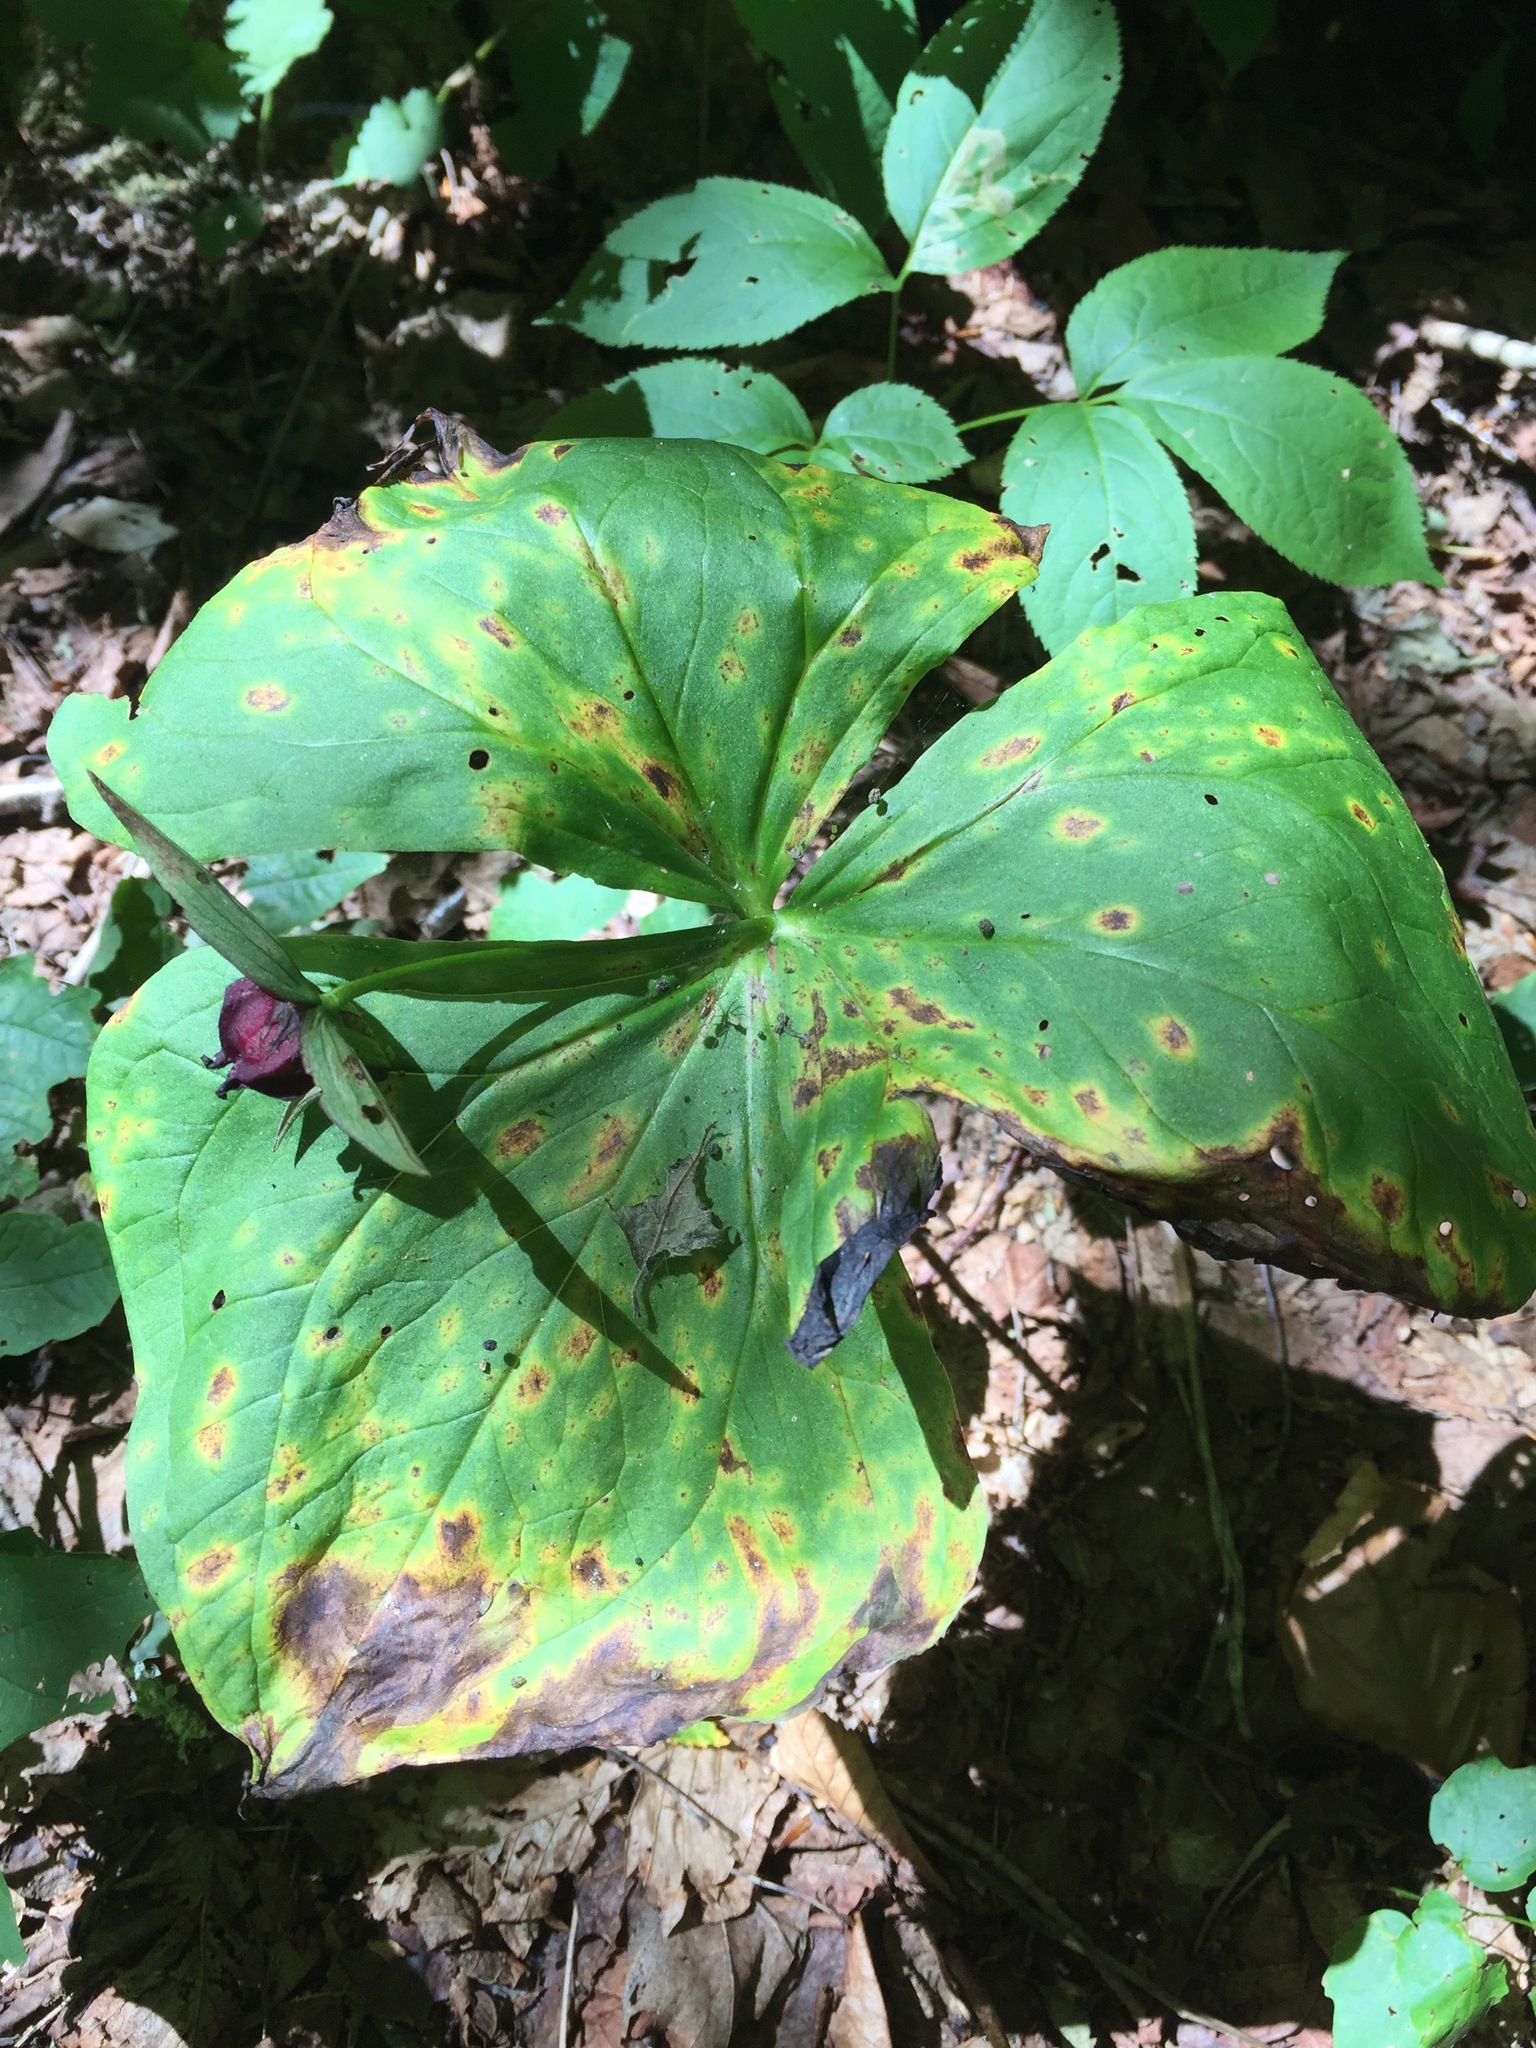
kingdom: Plantae
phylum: Tracheophyta
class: Liliopsida
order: Liliales
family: Melanthiaceae
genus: Trillium
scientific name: Trillium erectum
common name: Purple trillium
